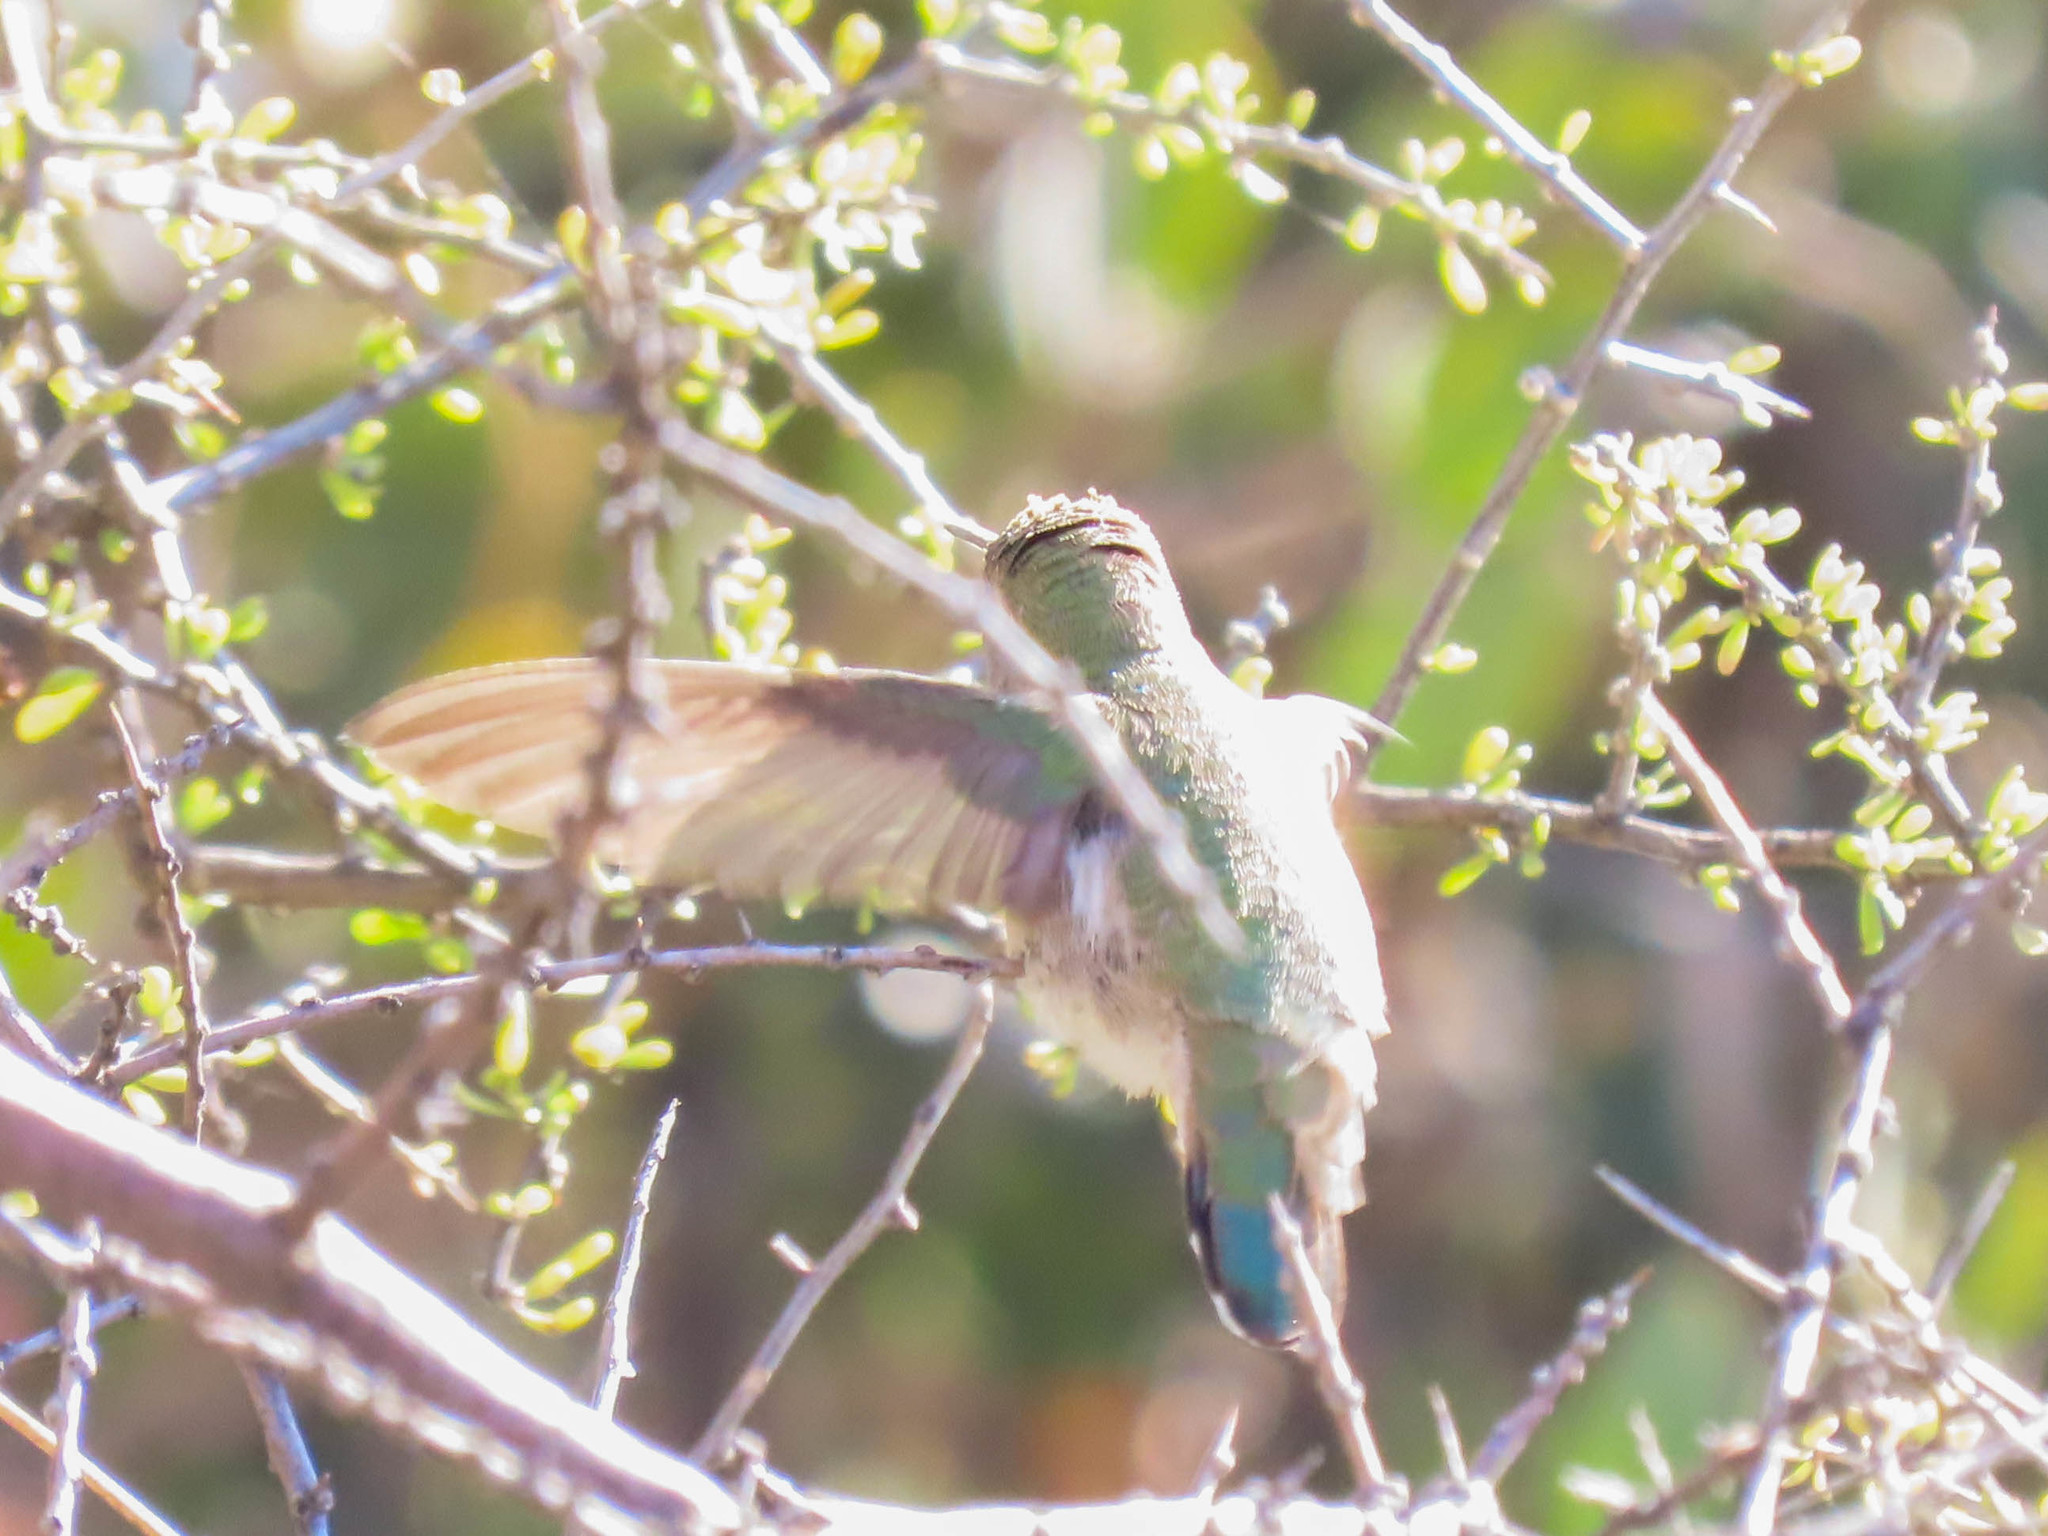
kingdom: Animalia
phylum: Chordata
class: Aves
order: Apodiformes
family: Trochilidae
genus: Calypte
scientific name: Calypte costae
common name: Costa's hummingbird
